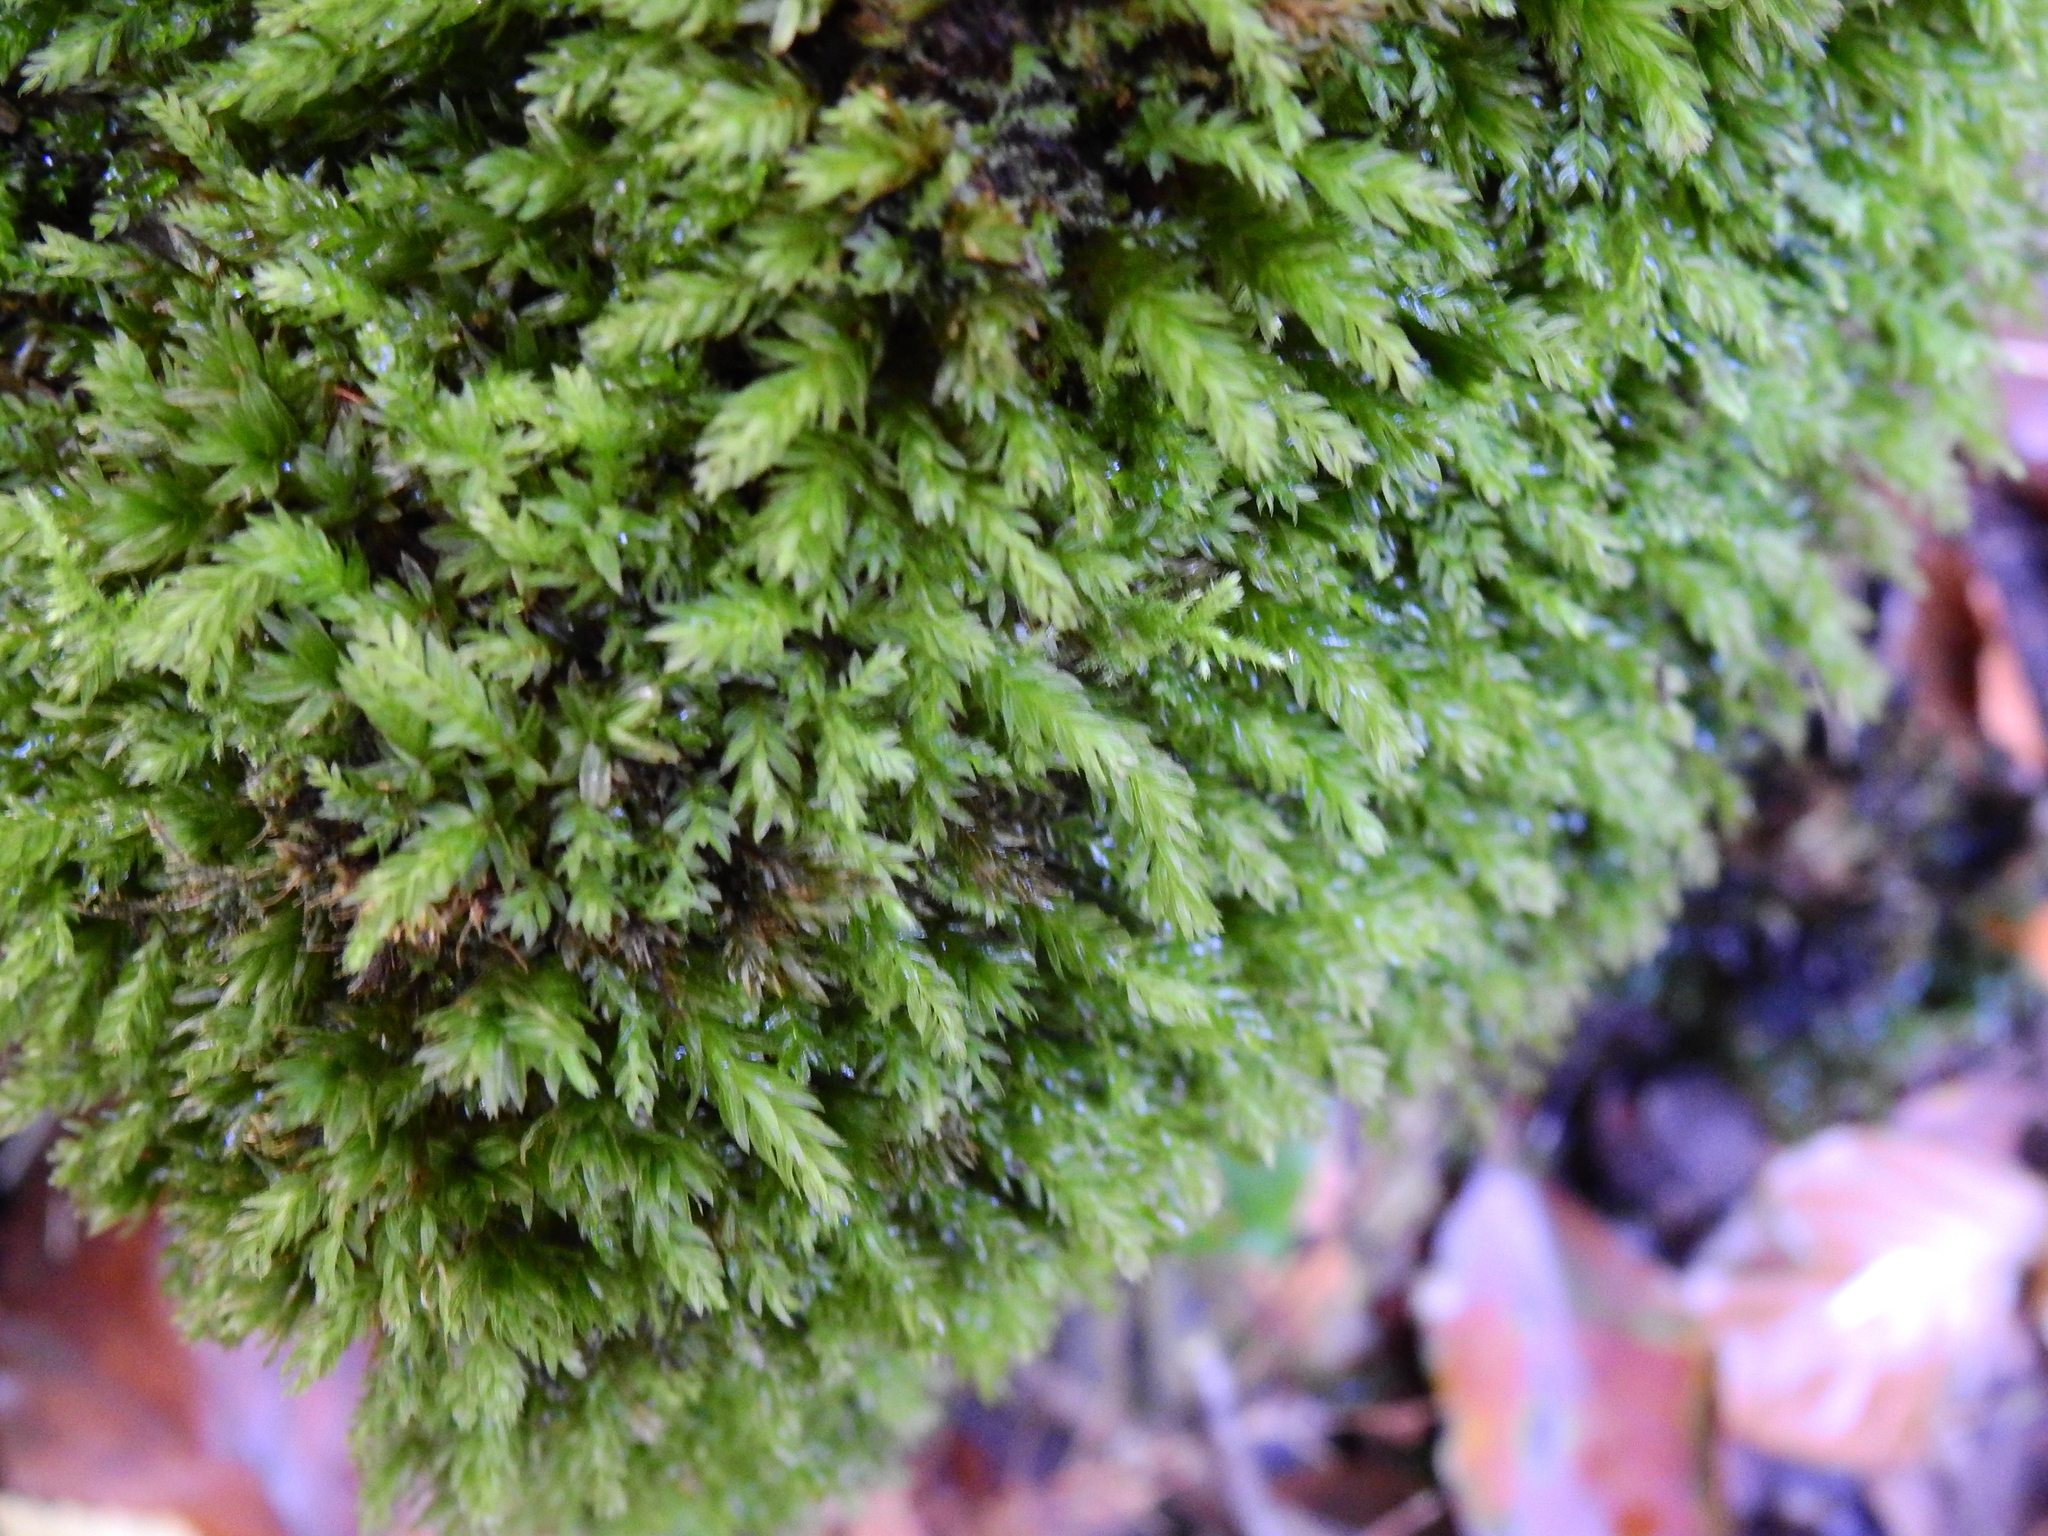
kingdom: Plantae
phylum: Bryophyta
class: Bryopsida
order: Bryales
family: Mniaceae
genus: Mnium
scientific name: Mnium hornum
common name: Swan's-neck leafy moss
